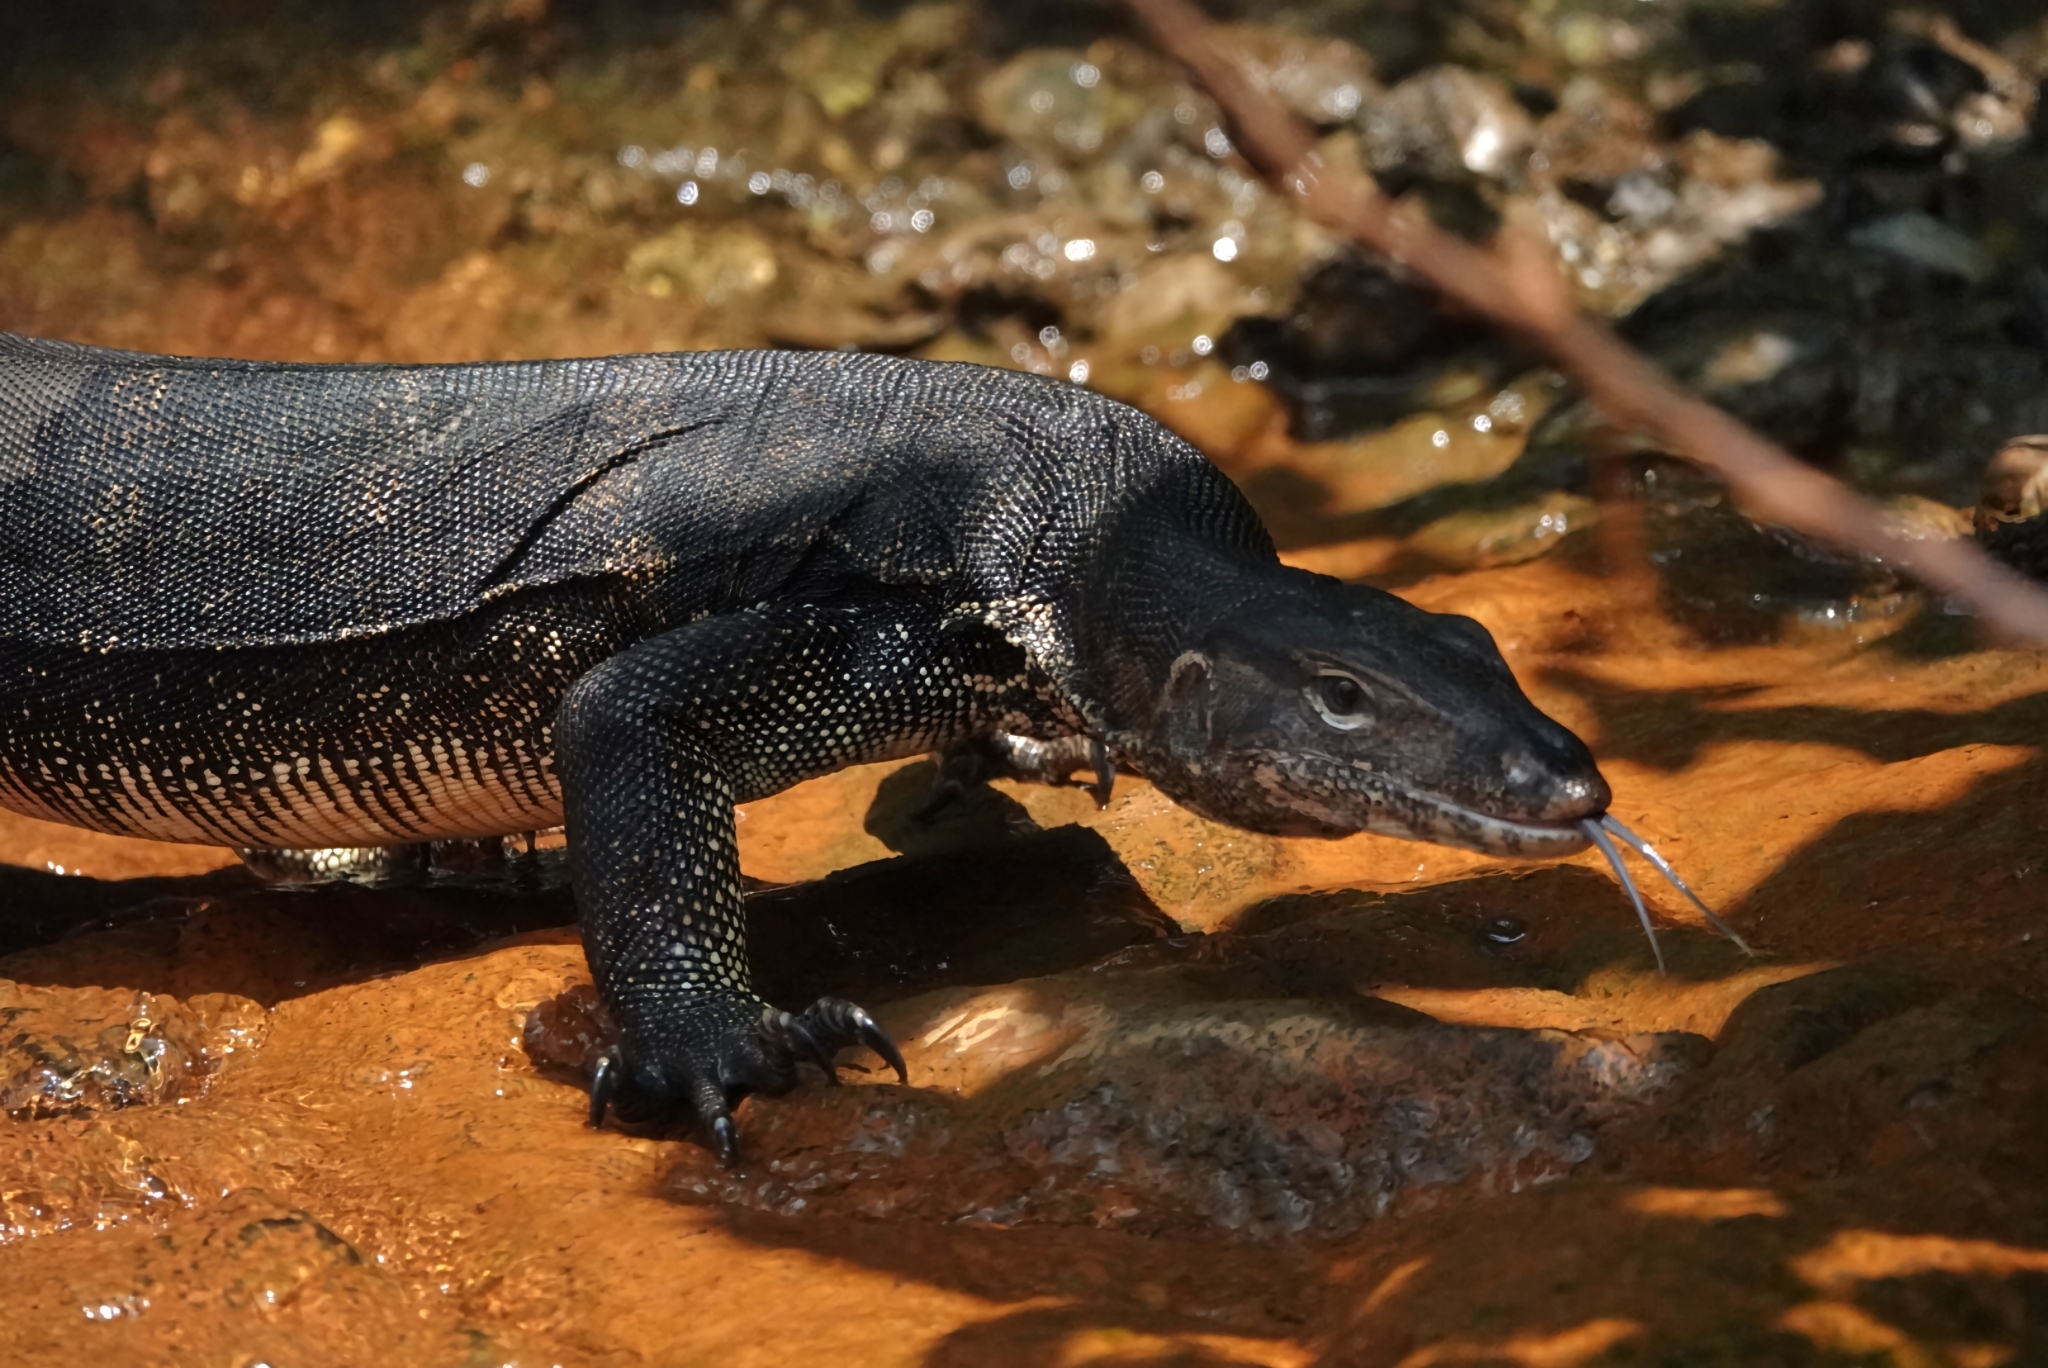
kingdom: Animalia
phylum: Chordata
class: Squamata
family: Varanidae
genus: Varanus
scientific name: Varanus salvator
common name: Common water monitor
